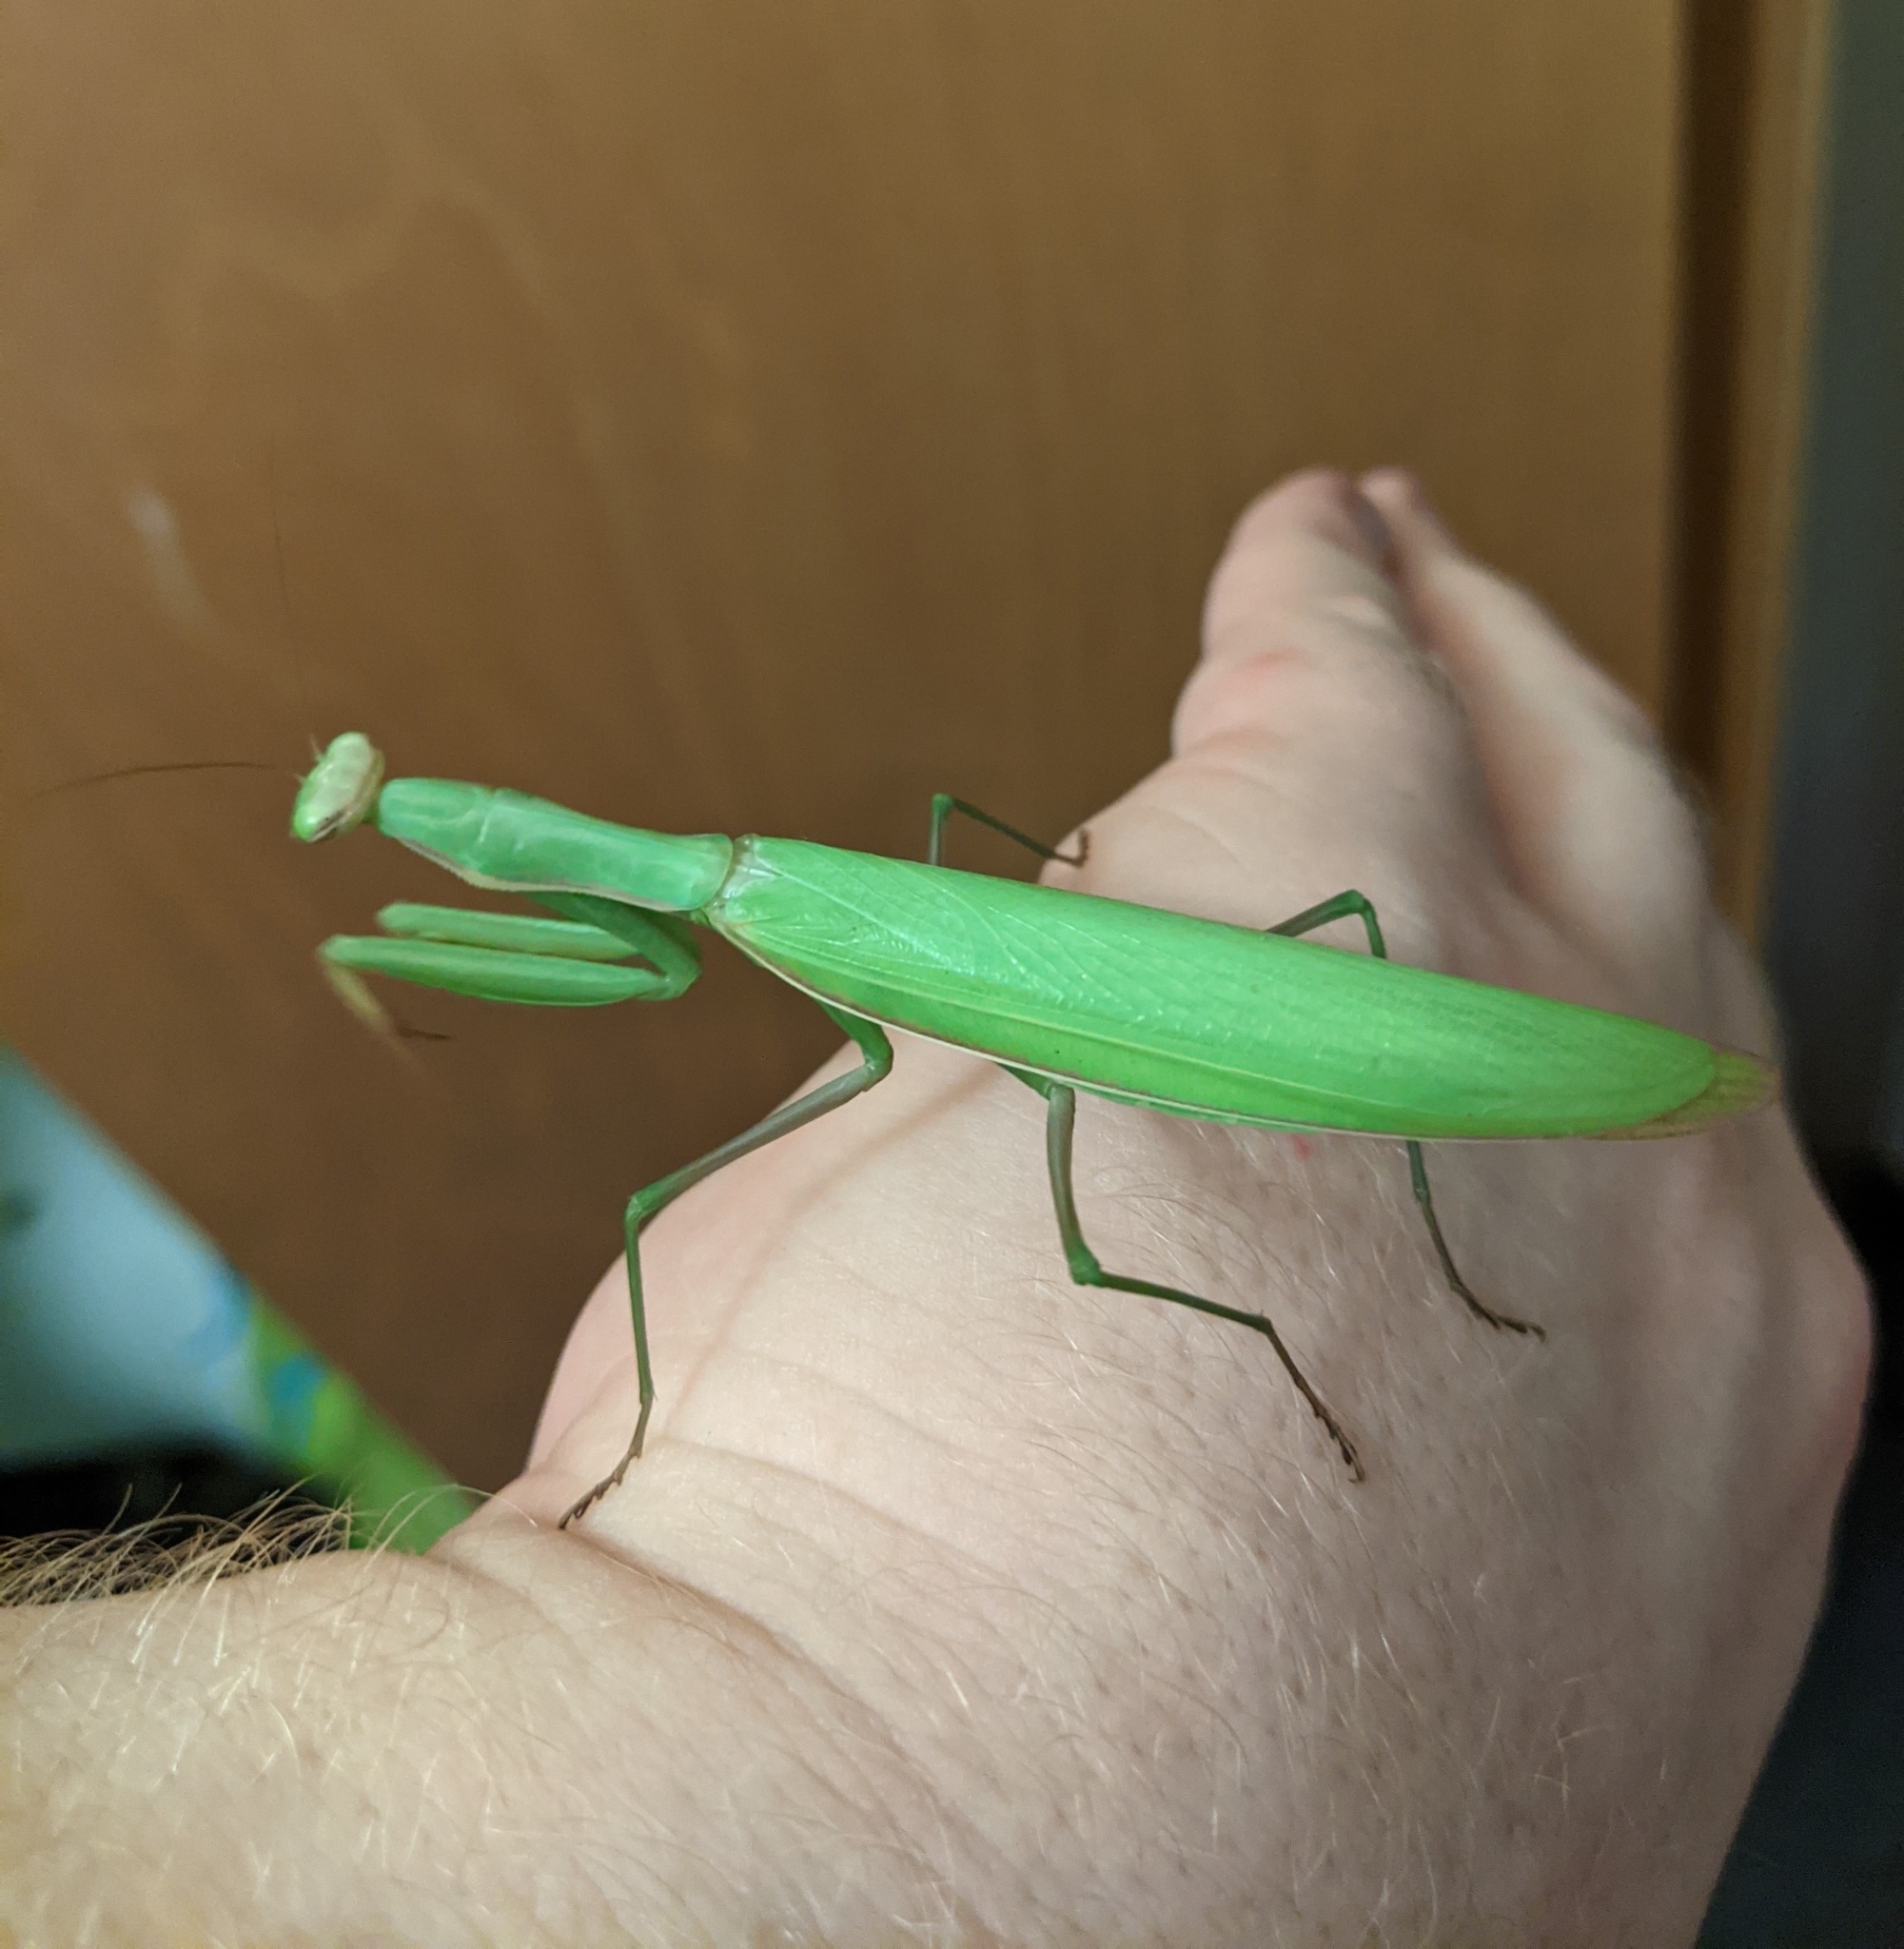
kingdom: Animalia
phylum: Arthropoda
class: Insecta
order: Mantodea
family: Mantidae
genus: Mantis
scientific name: Mantis religiosa
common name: Praying mantis
